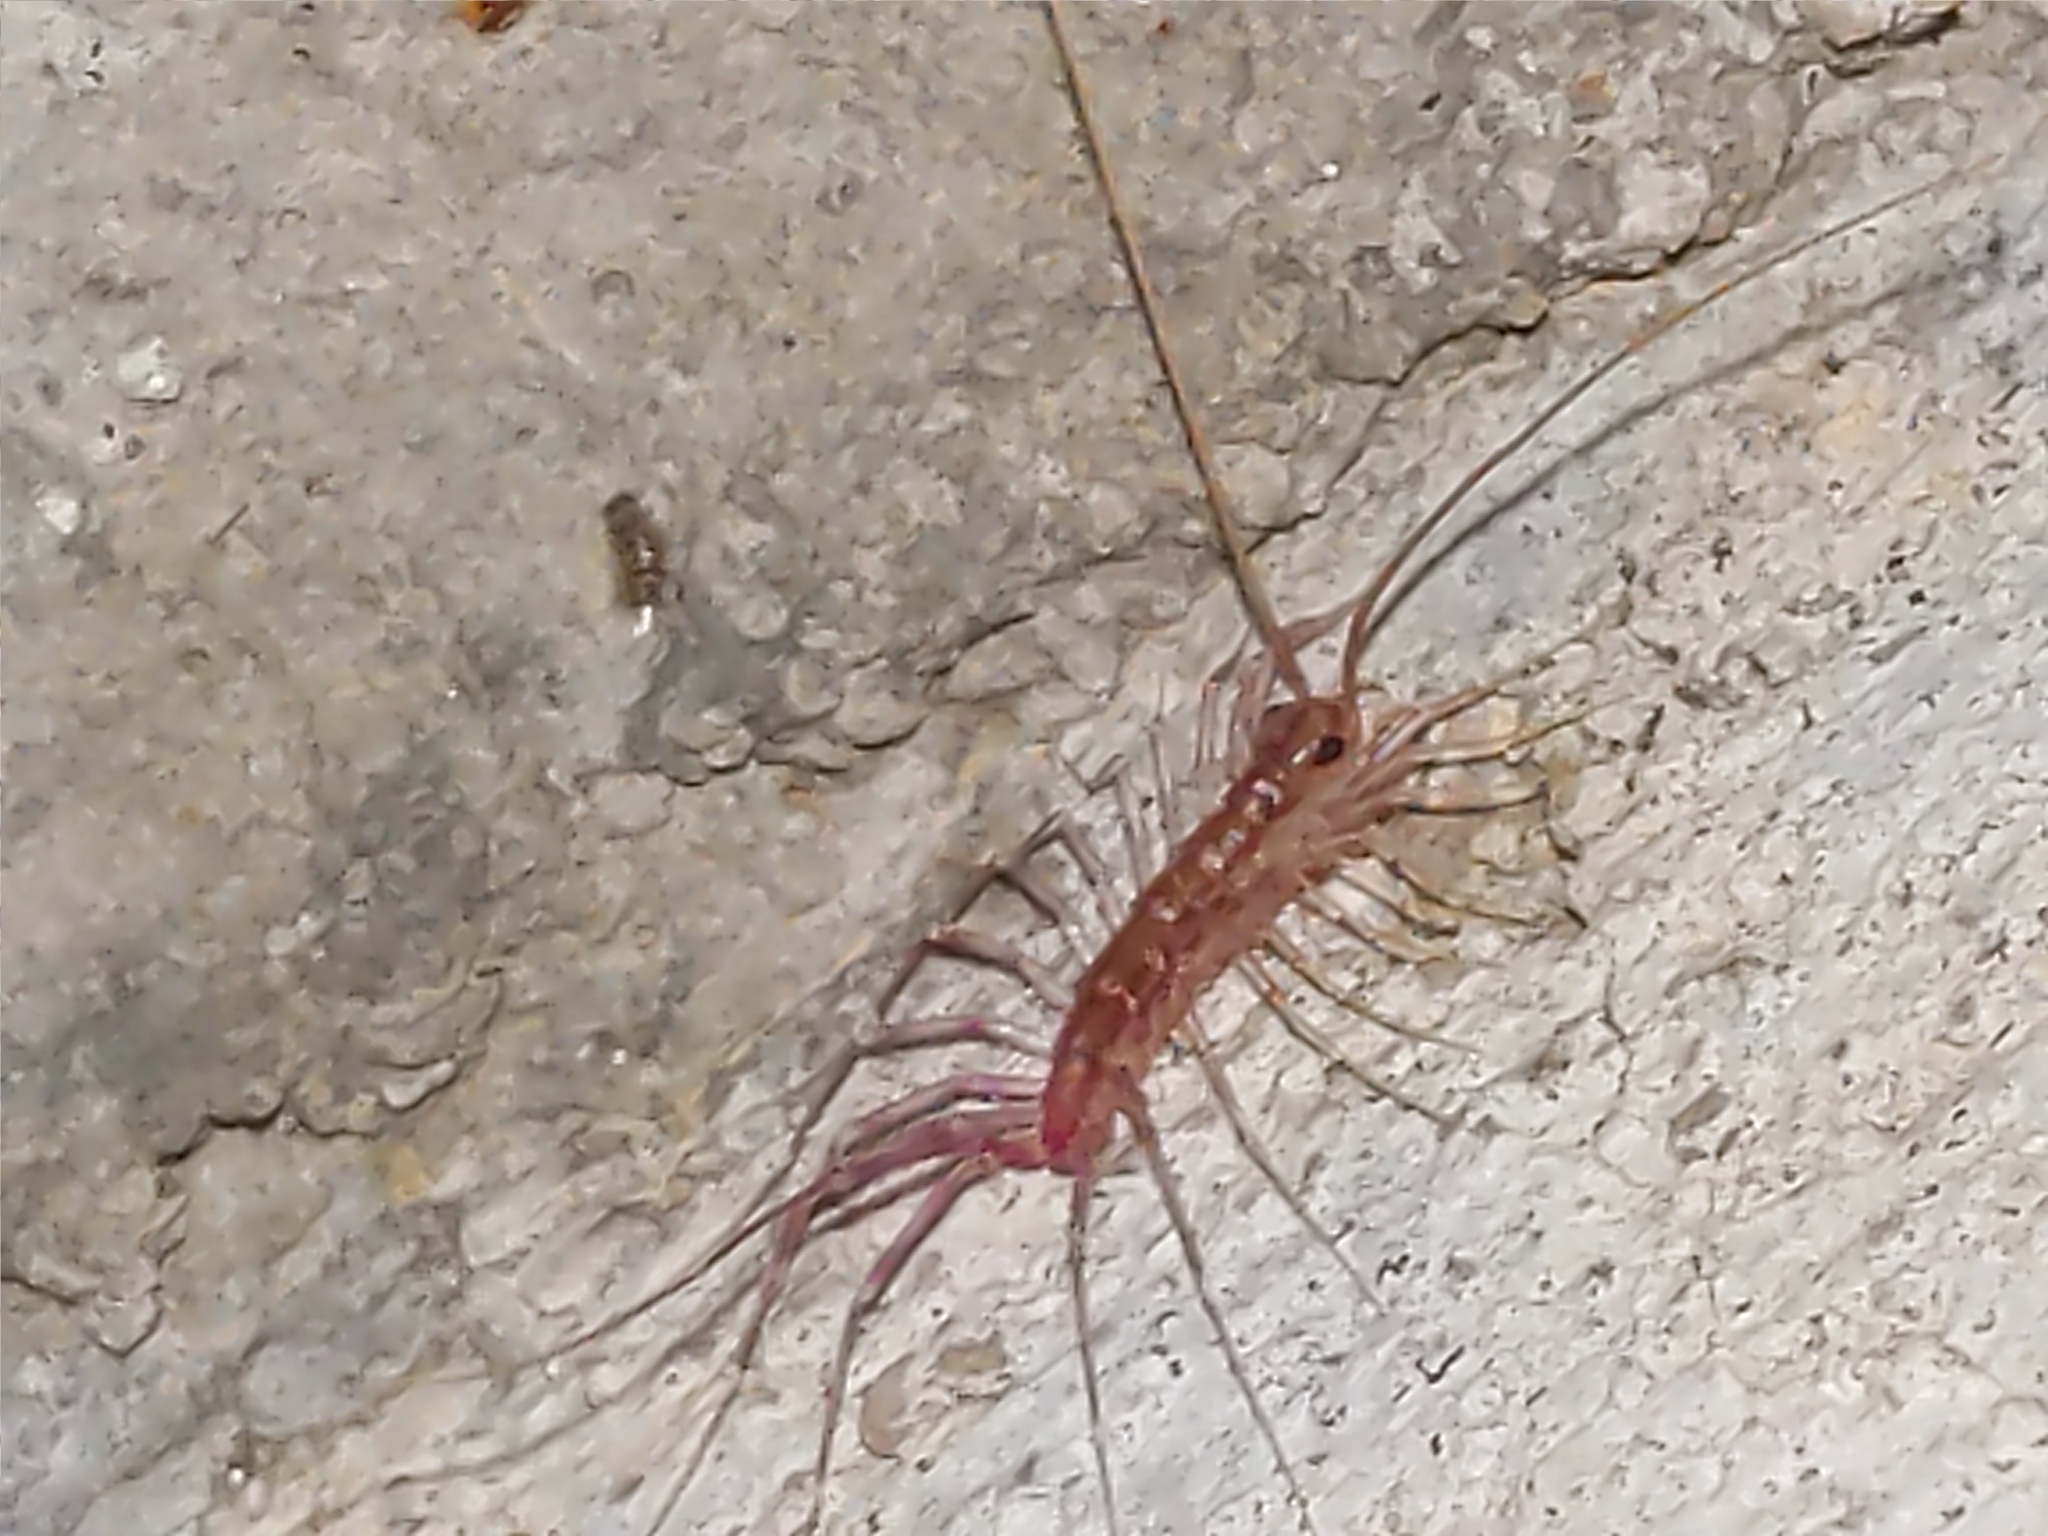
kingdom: Animalia
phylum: Arthropoda
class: Chilopoda
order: Scutigeromorpha
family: Scutigeridae
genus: Scutigera
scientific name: Scutigera coleoptrata
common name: House centipede
